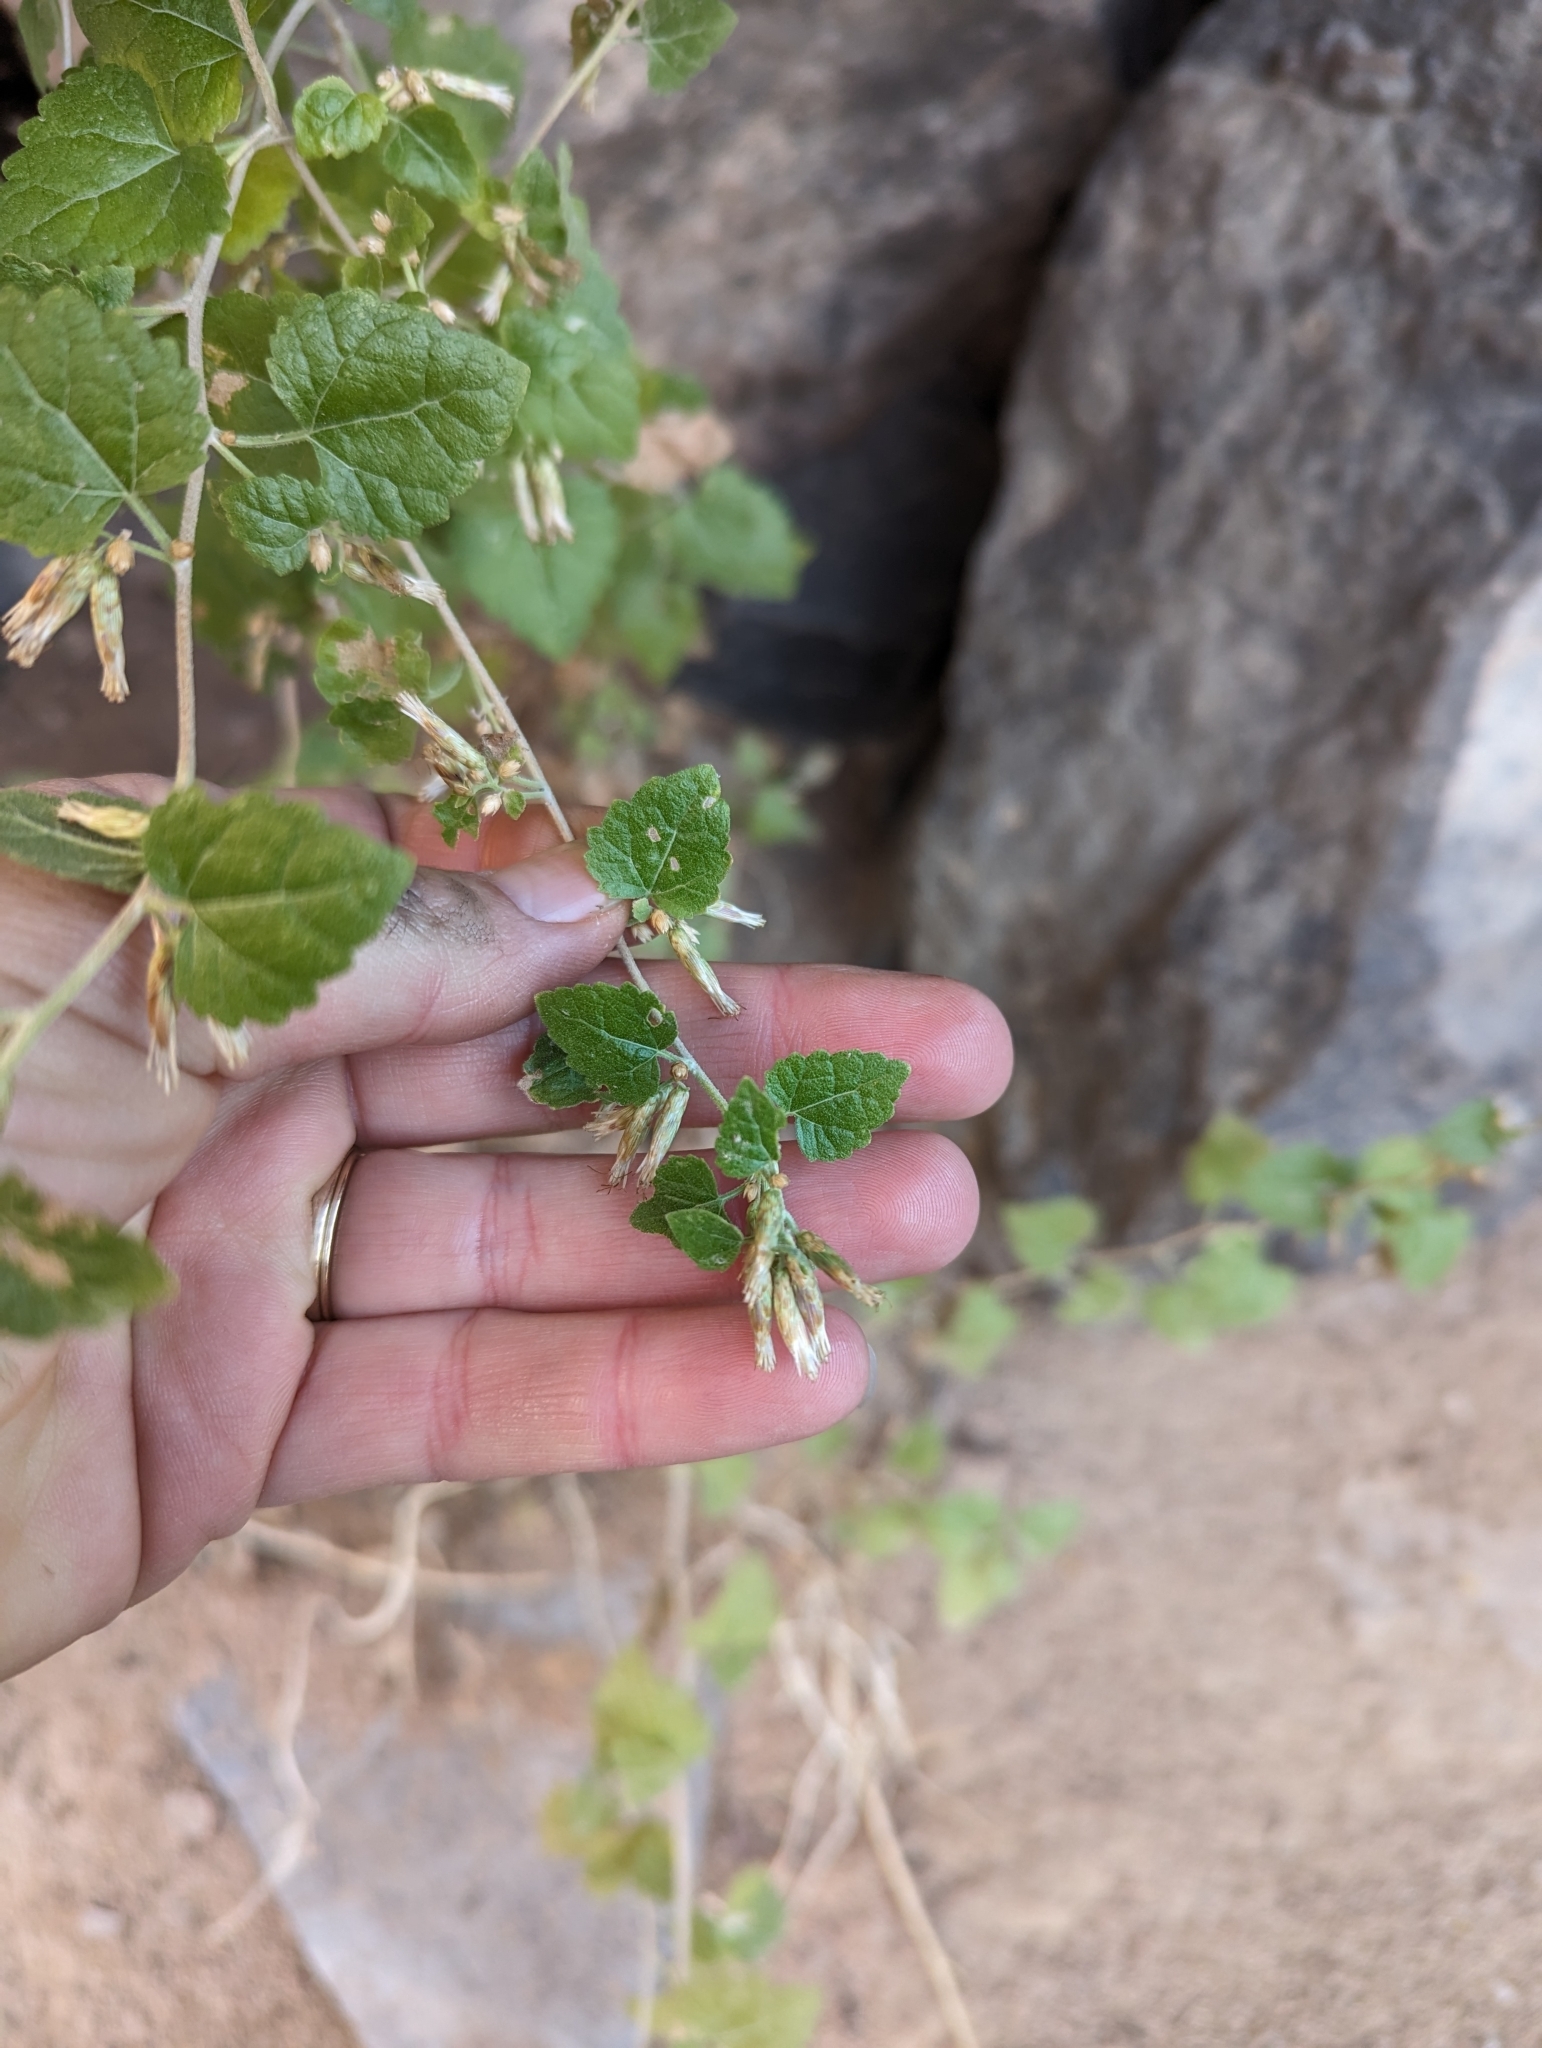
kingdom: Plantae
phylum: Tracheophyta
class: Magnoliopsida
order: Asterales
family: Asteraceae
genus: Brickellia
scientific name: Brickellia californica
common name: California brickellbush
